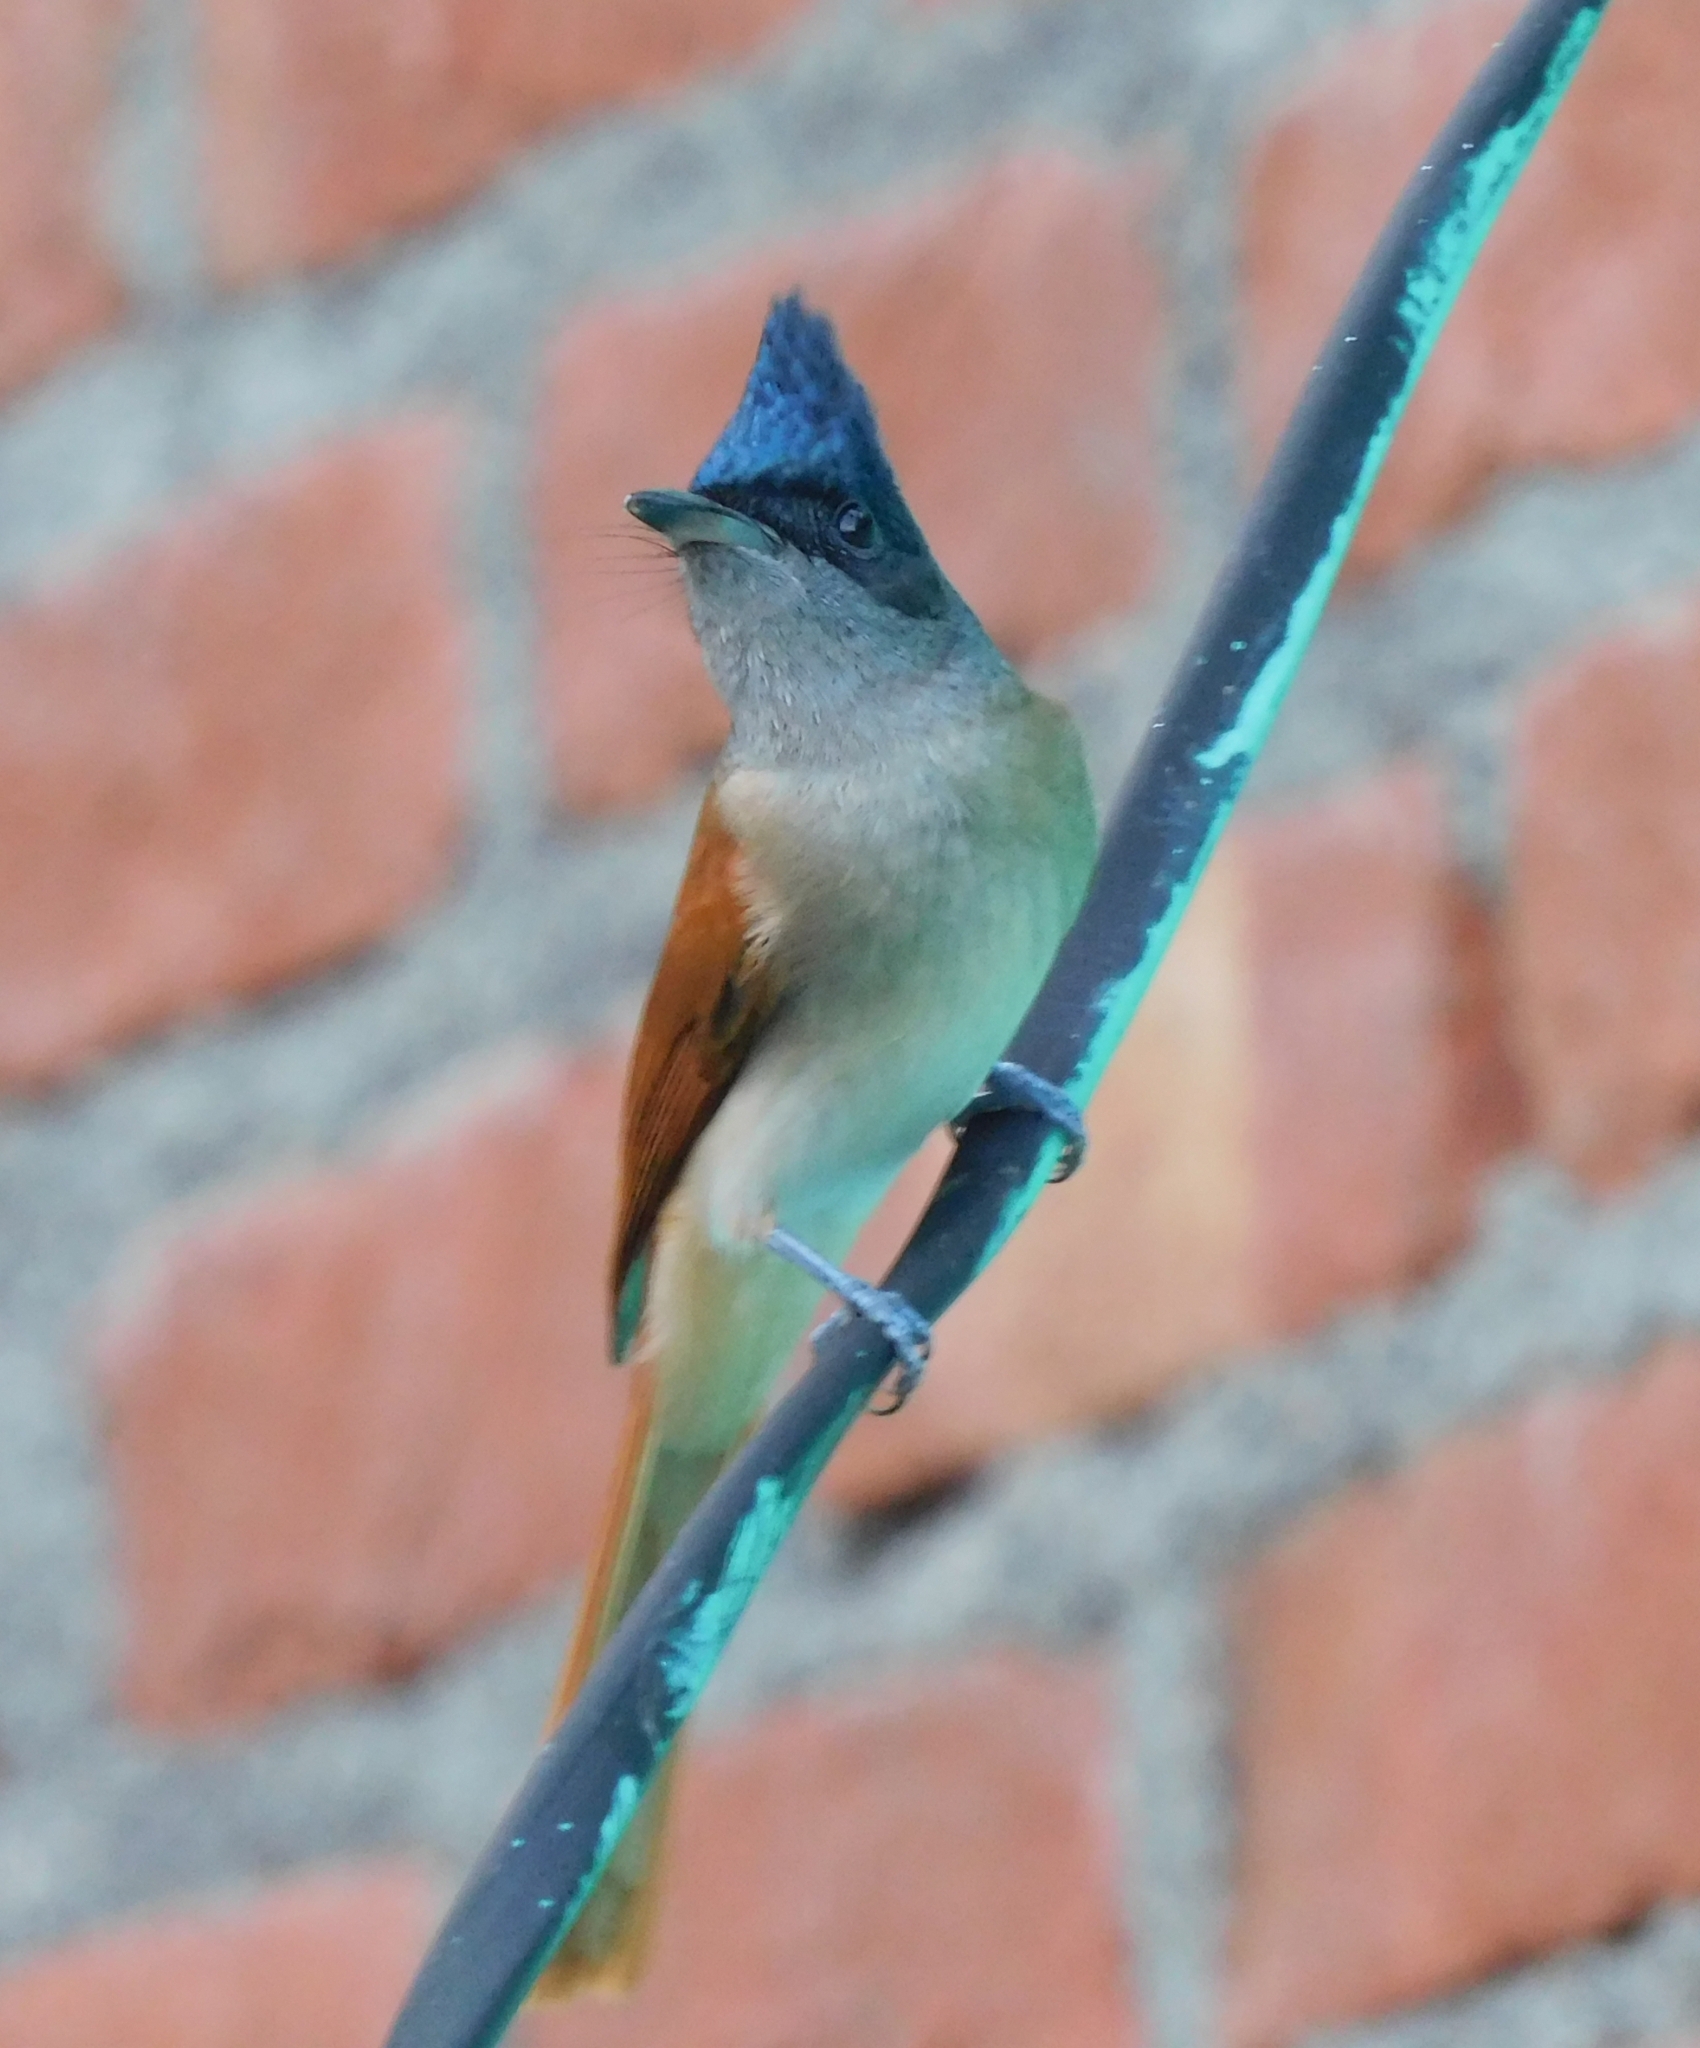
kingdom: Animalia
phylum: Chordata
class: Aves
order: Passeriformes
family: Monarchidae
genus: Terpsiphone
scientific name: Terpsiphone paradisi
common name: Indian paradise flycatcher
